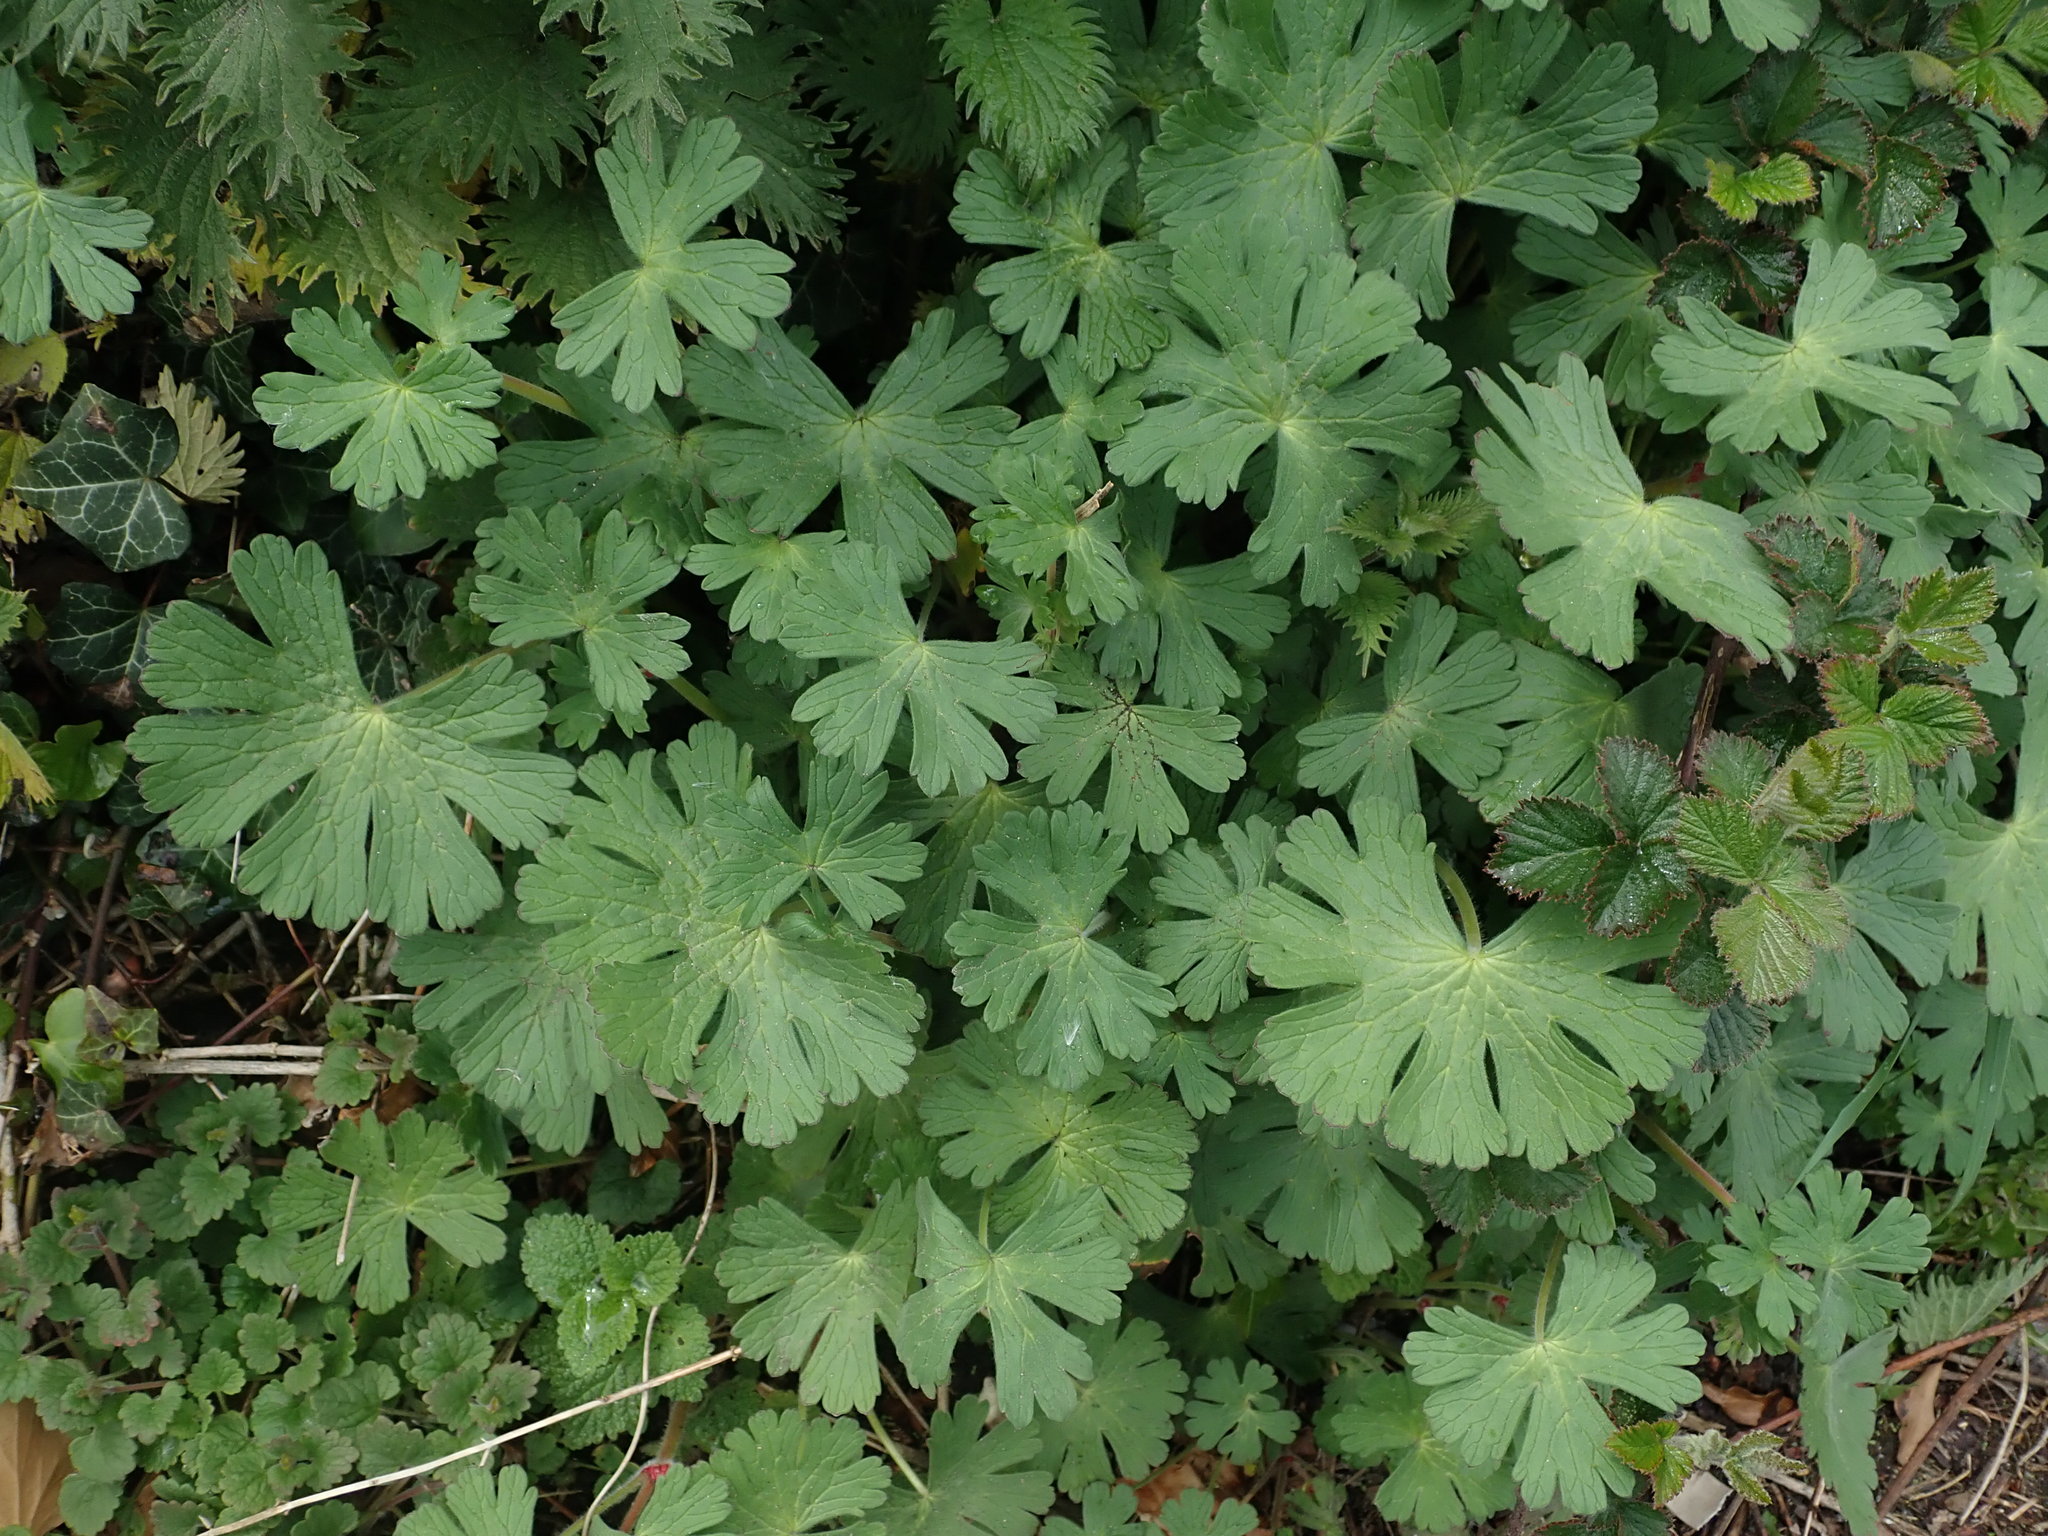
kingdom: Plantae
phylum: Tracheophyta
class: Magnoliopsida
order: Geraniales
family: Geraniaceae
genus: Geranium
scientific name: Geranium pyrenaicum
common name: Hedgerow crane's-bill
